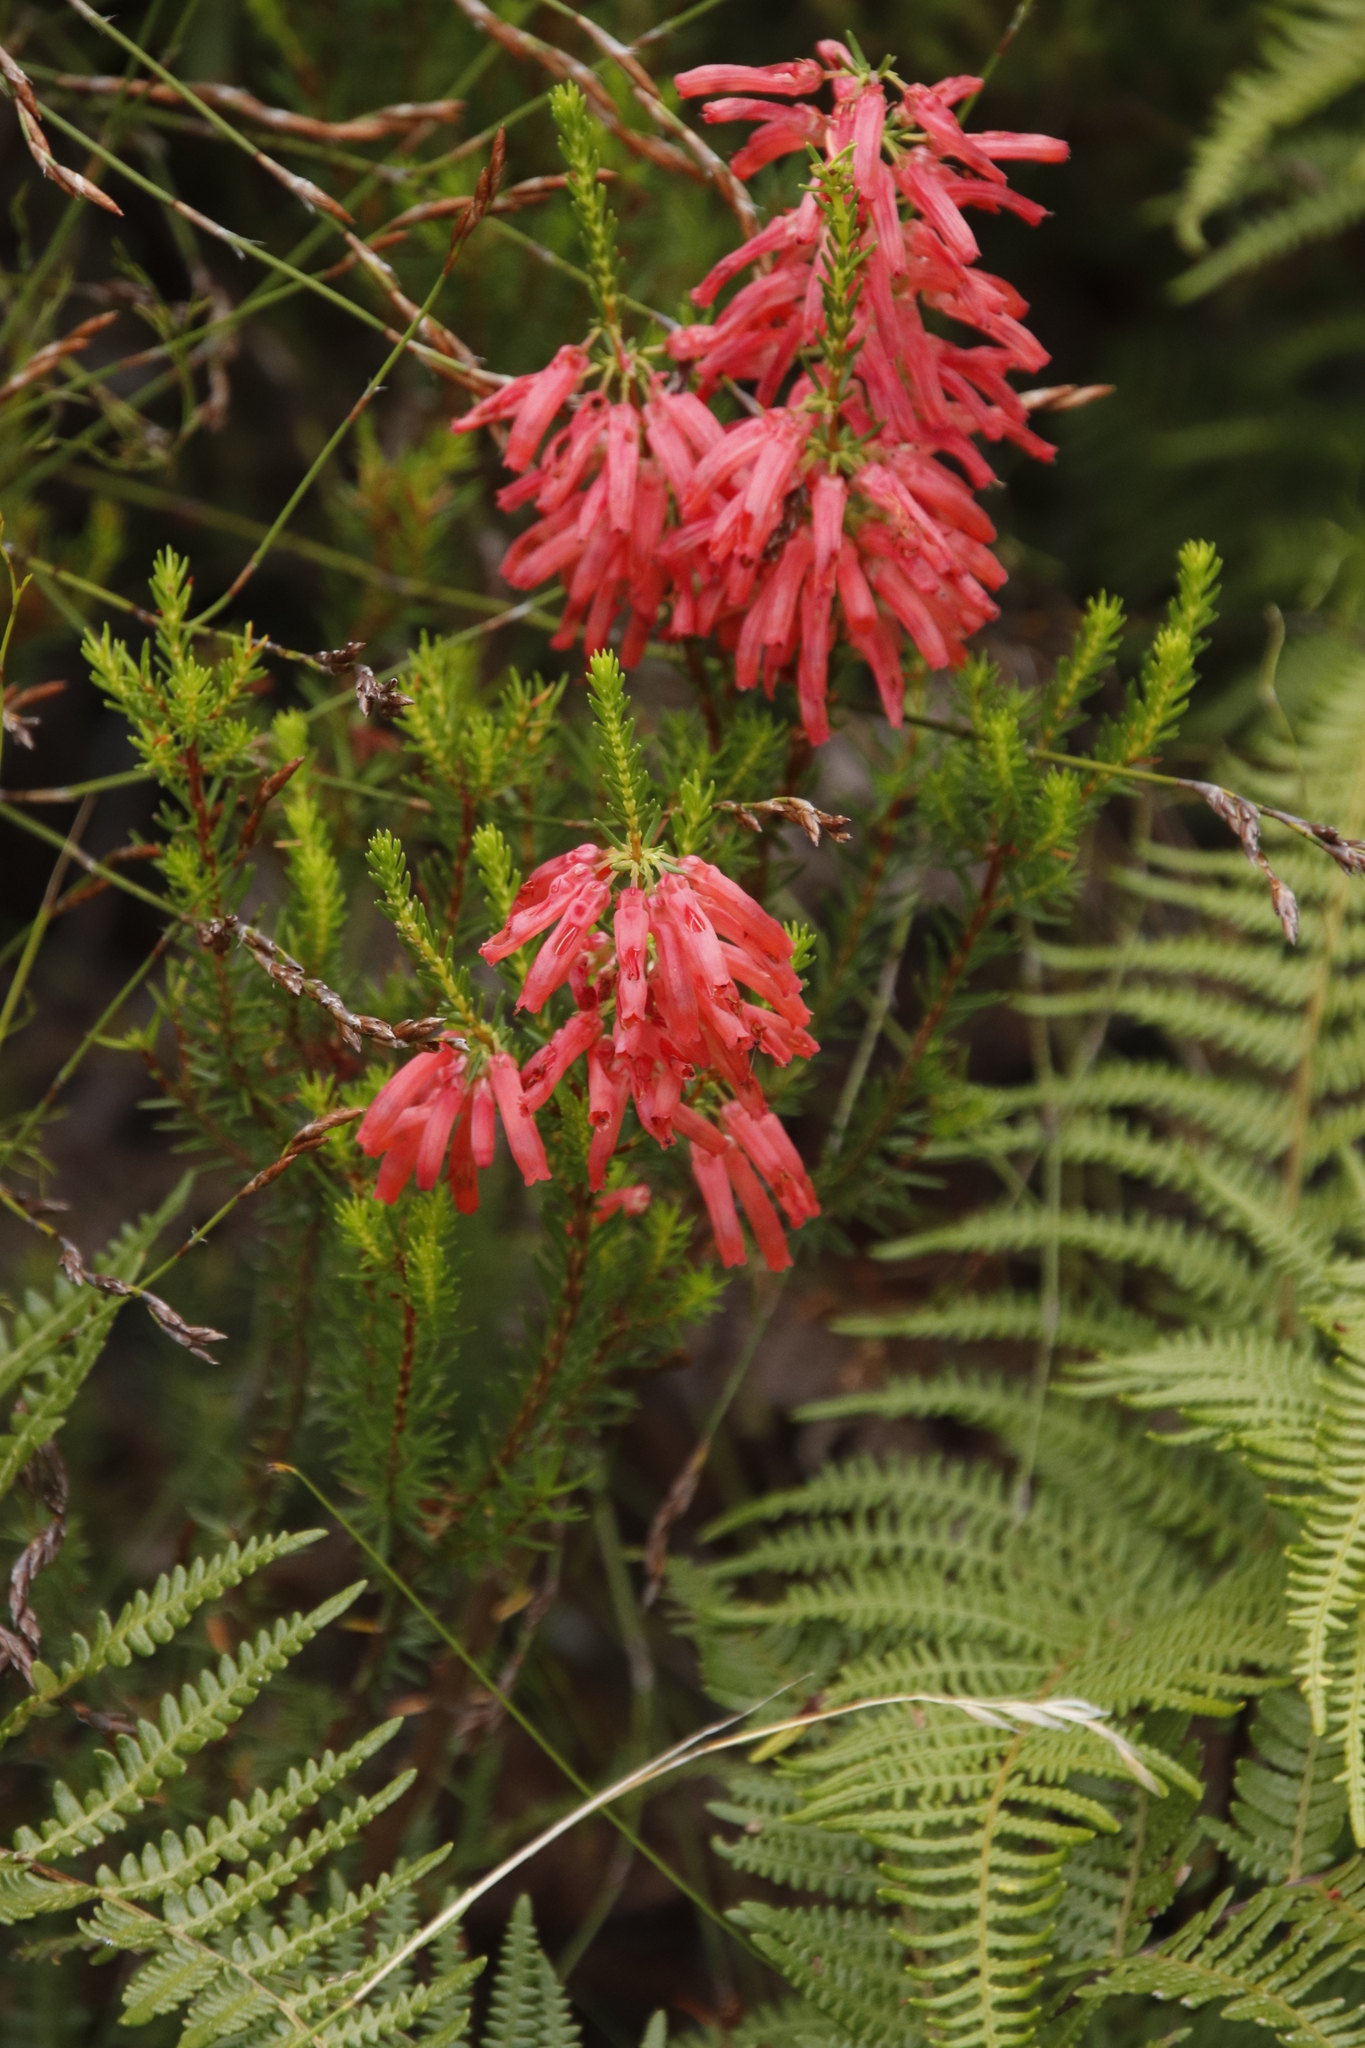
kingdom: Plantae
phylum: Tracheophyta
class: Magnoliopsida
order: Ericales
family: Ericaceae
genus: Erica
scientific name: Erica mammosa
